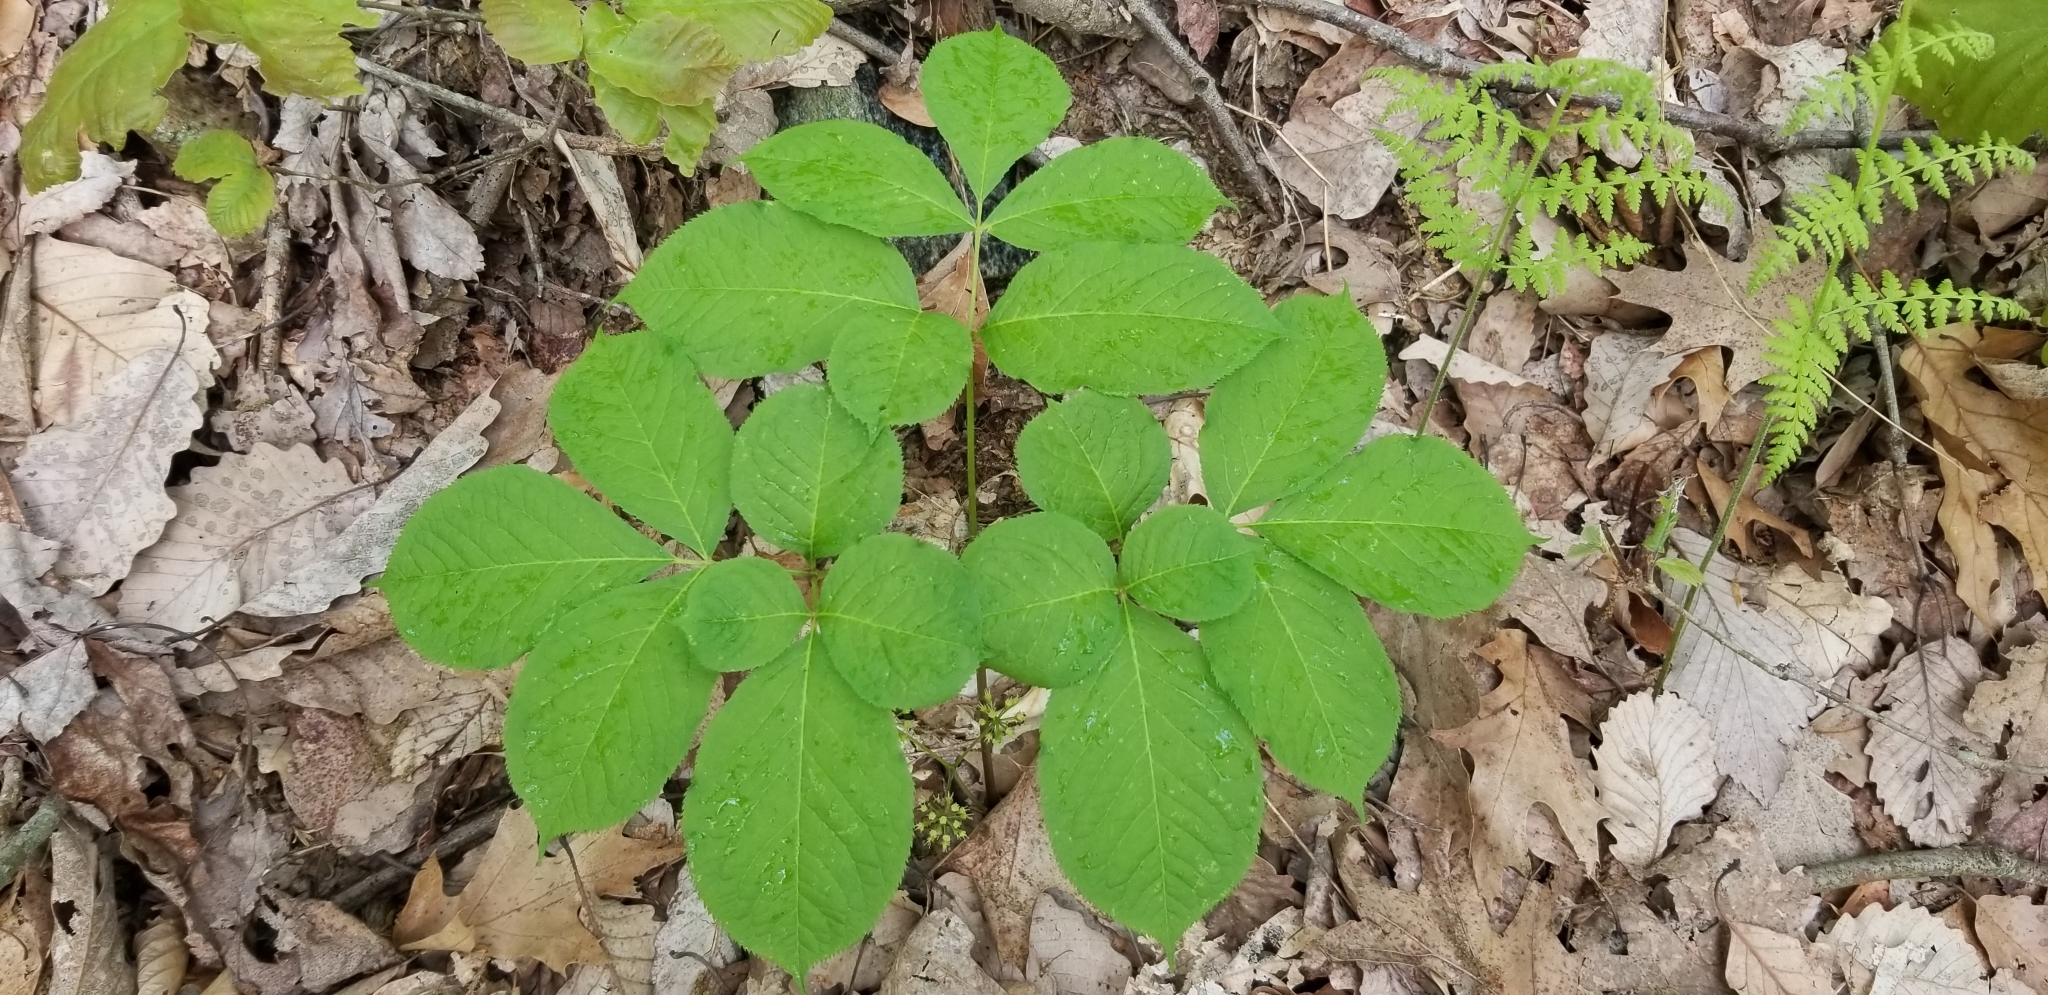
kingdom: Plantae
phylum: Tracheophyta
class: Magnoliopsida
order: Apiales
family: Araliaceae
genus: Aralia
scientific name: Aralia nudicaulis
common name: Wild sarsaparilla
